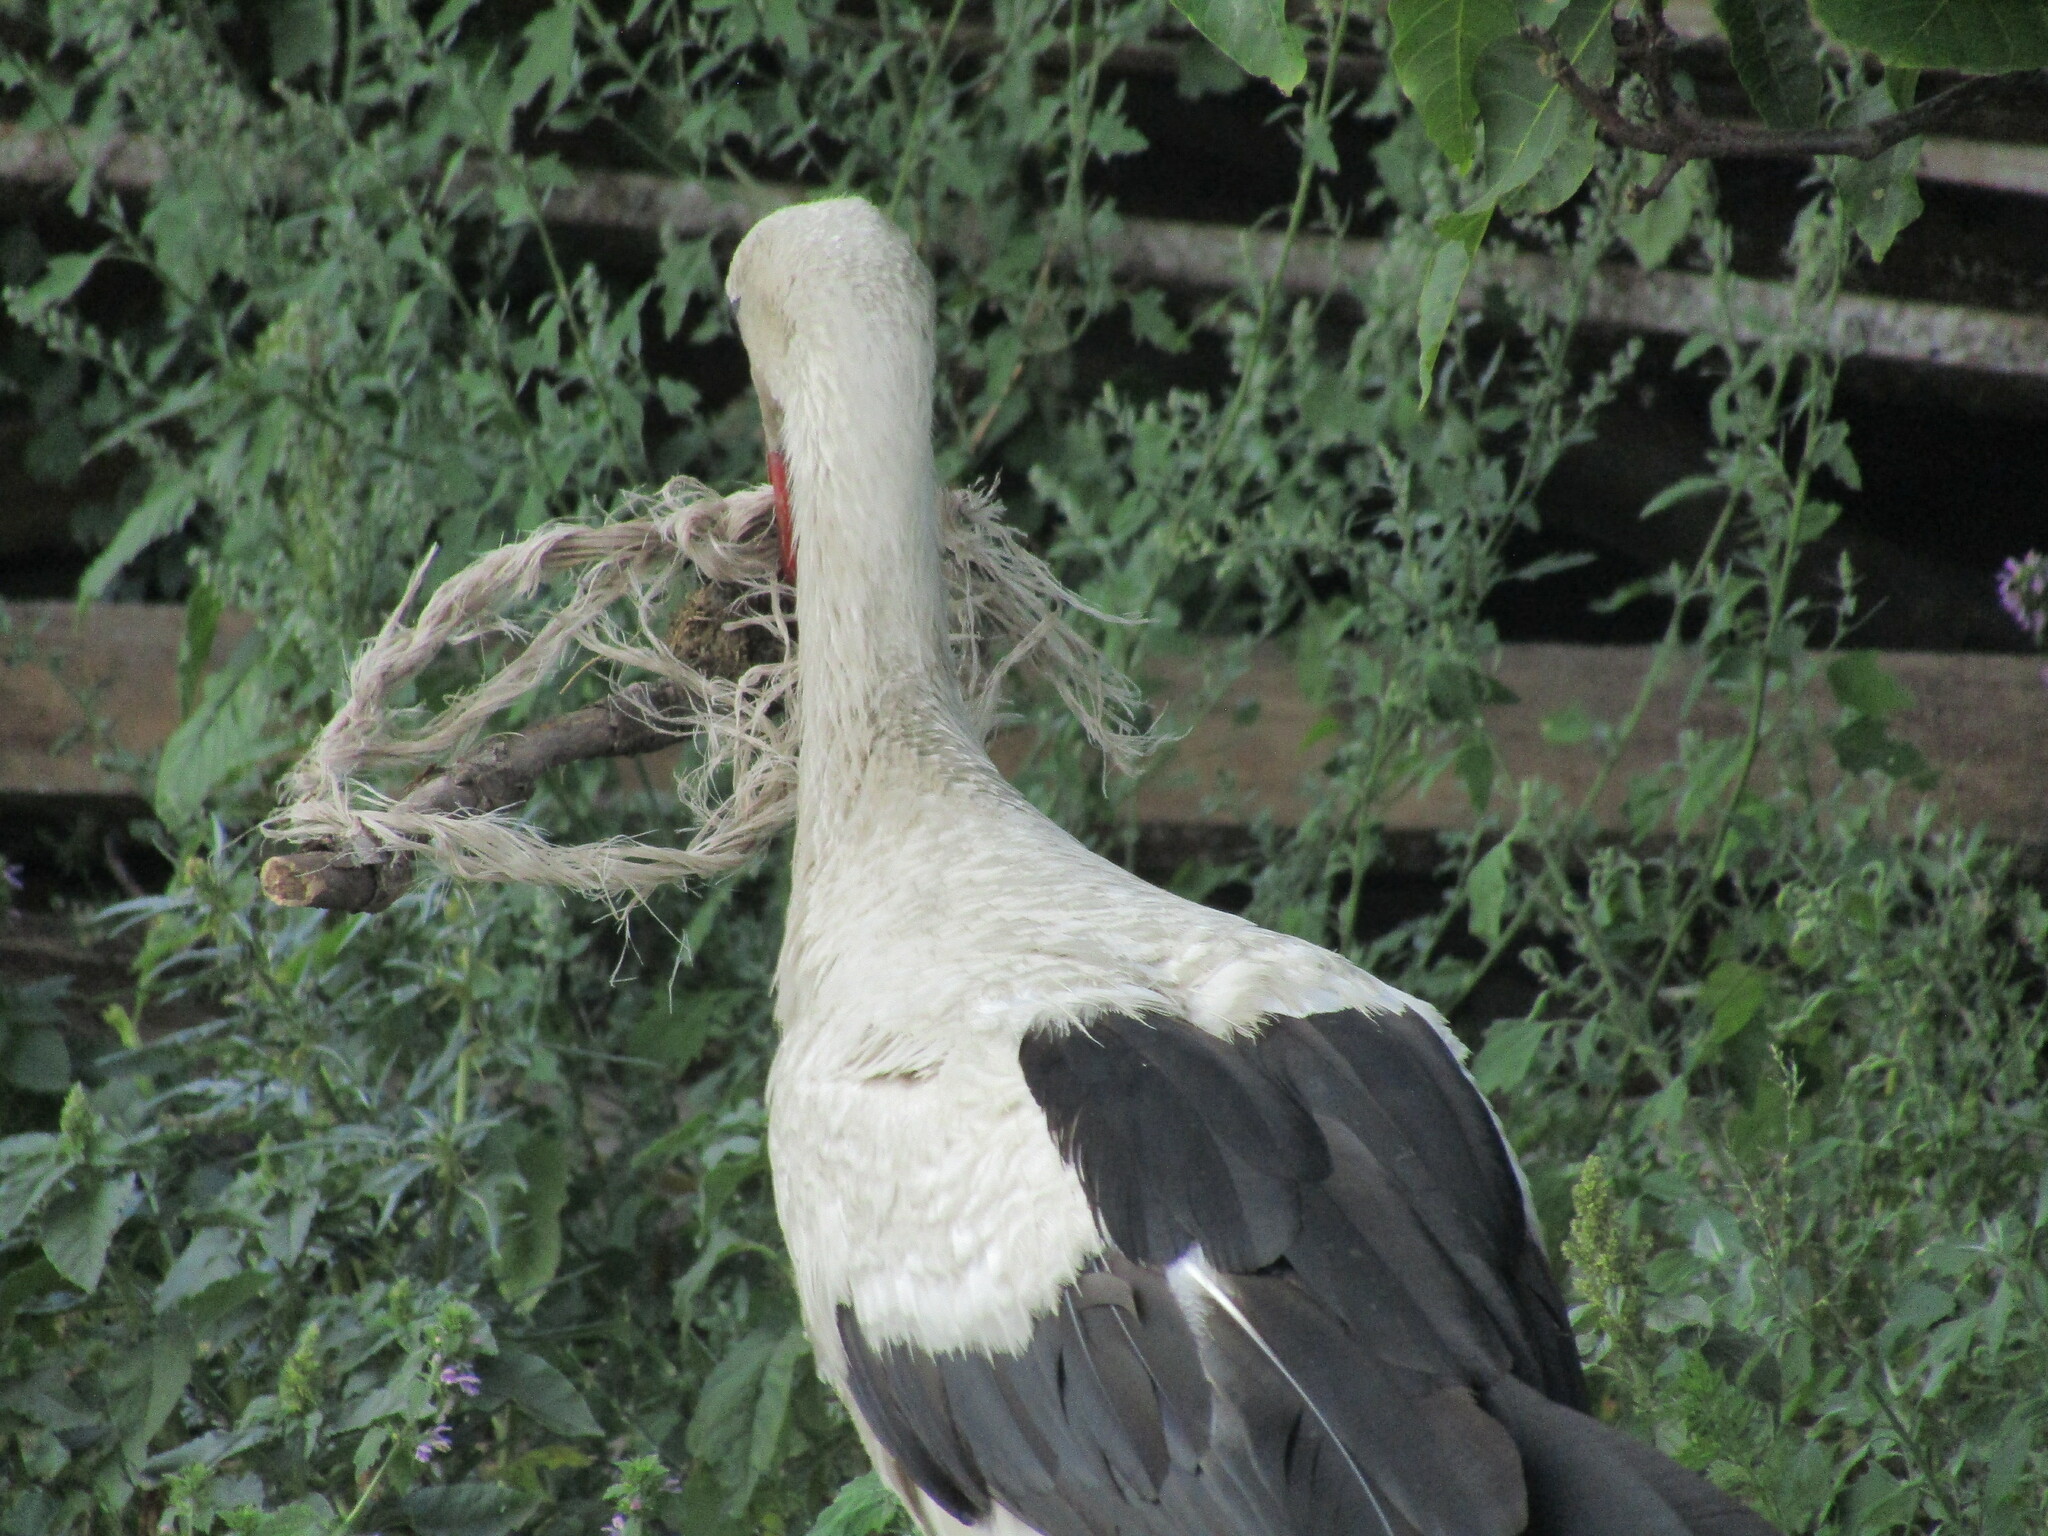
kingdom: Animalia
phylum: Chordata
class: Aves
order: Ciconiiformes
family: Ciconiidae
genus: Ciconia
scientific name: Ciconia ciconia
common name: White stork
